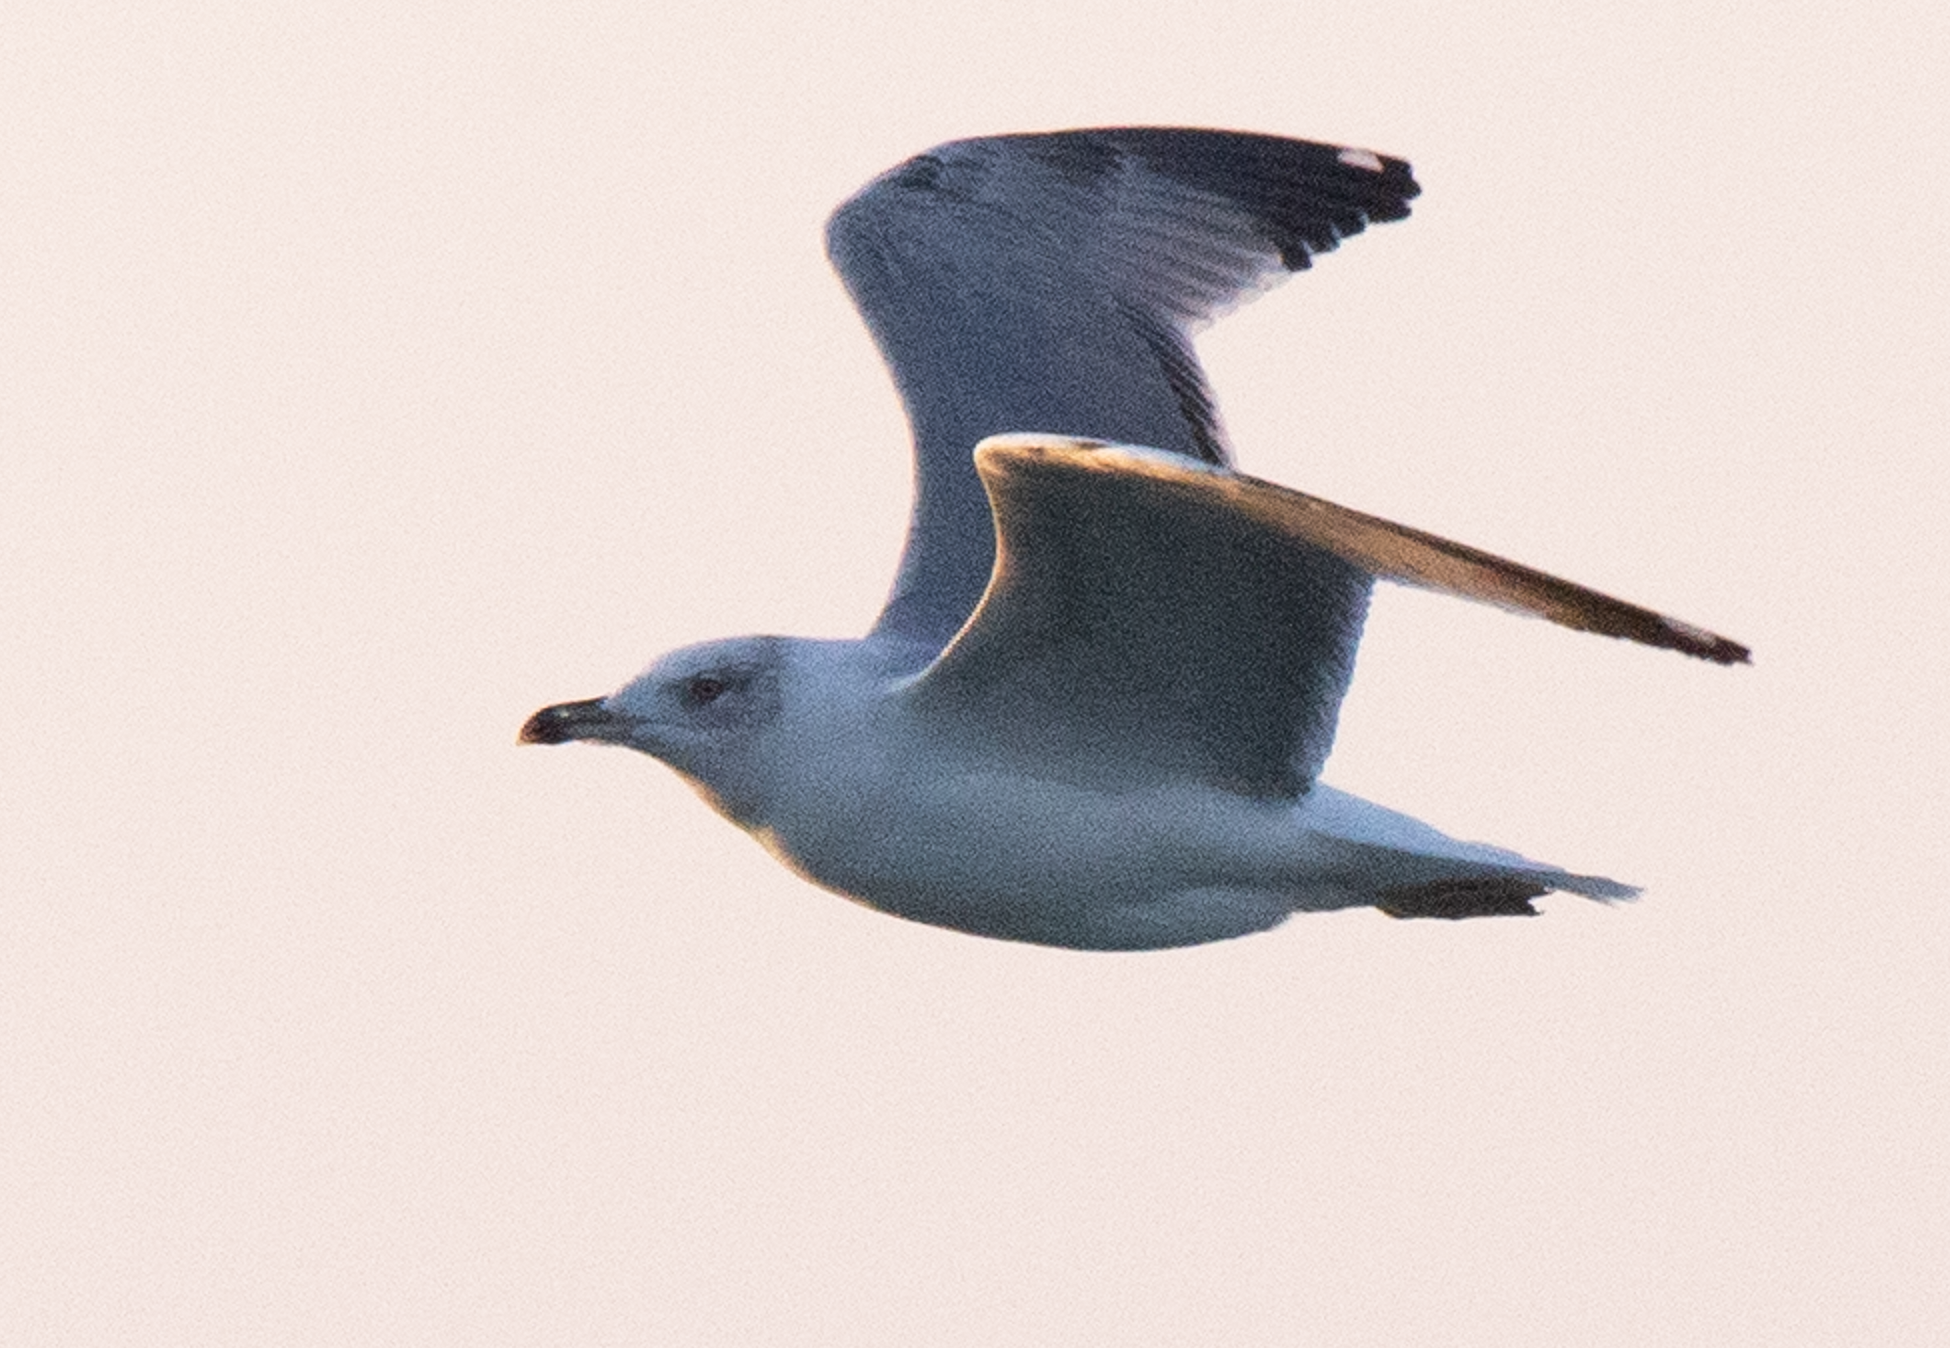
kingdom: Animalia
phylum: Chordata
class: Aves
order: Charadriiformes
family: Laridae
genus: Larus
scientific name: Larus michahellis
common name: Yellow-legged gull
